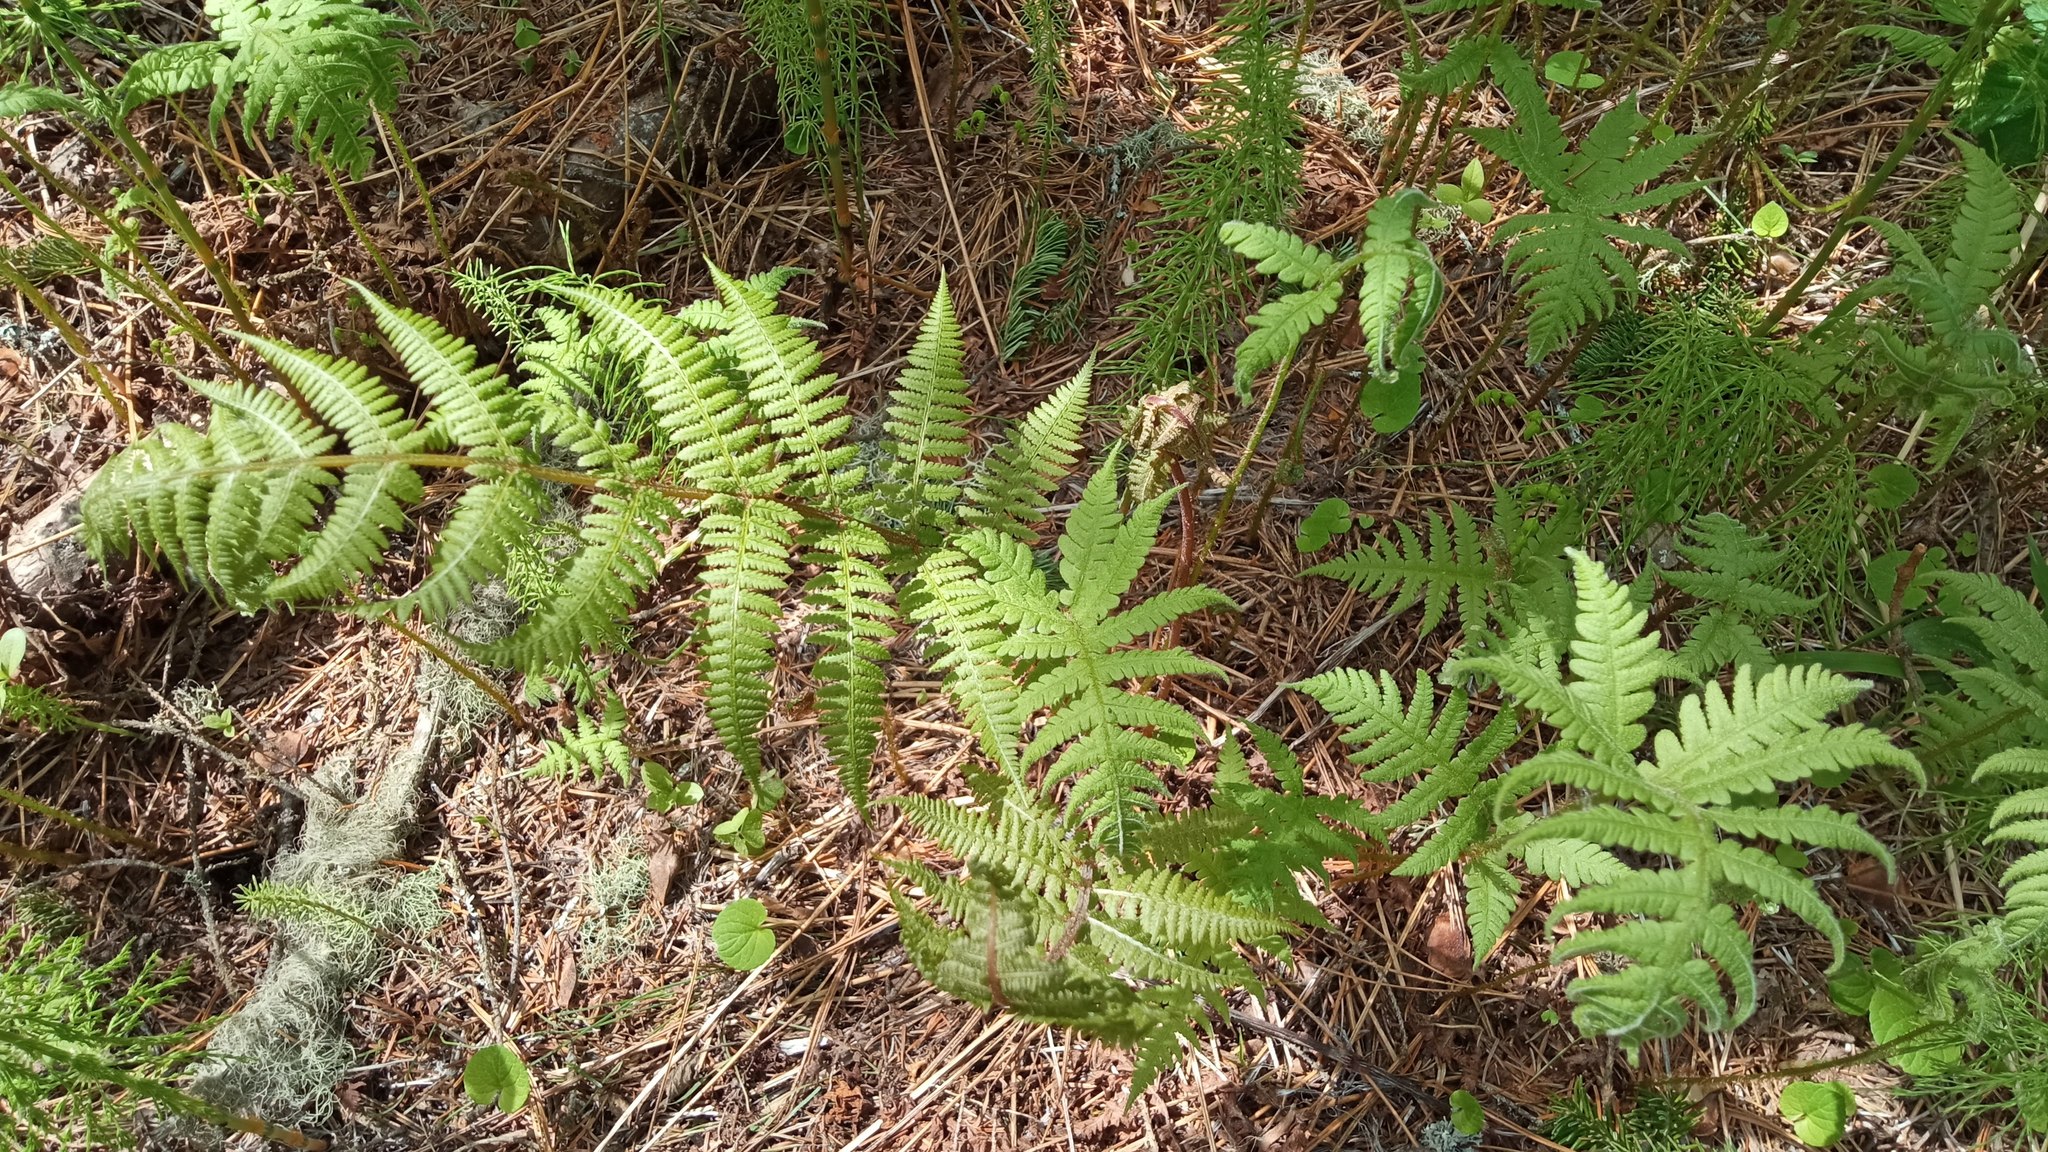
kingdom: Plantae
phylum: Tracheophyta
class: Polypodiopsida
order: Polypodiales
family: Thelypteridaceae
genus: Phegopteris
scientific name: Phegopteris connectilis
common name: Beech fern
